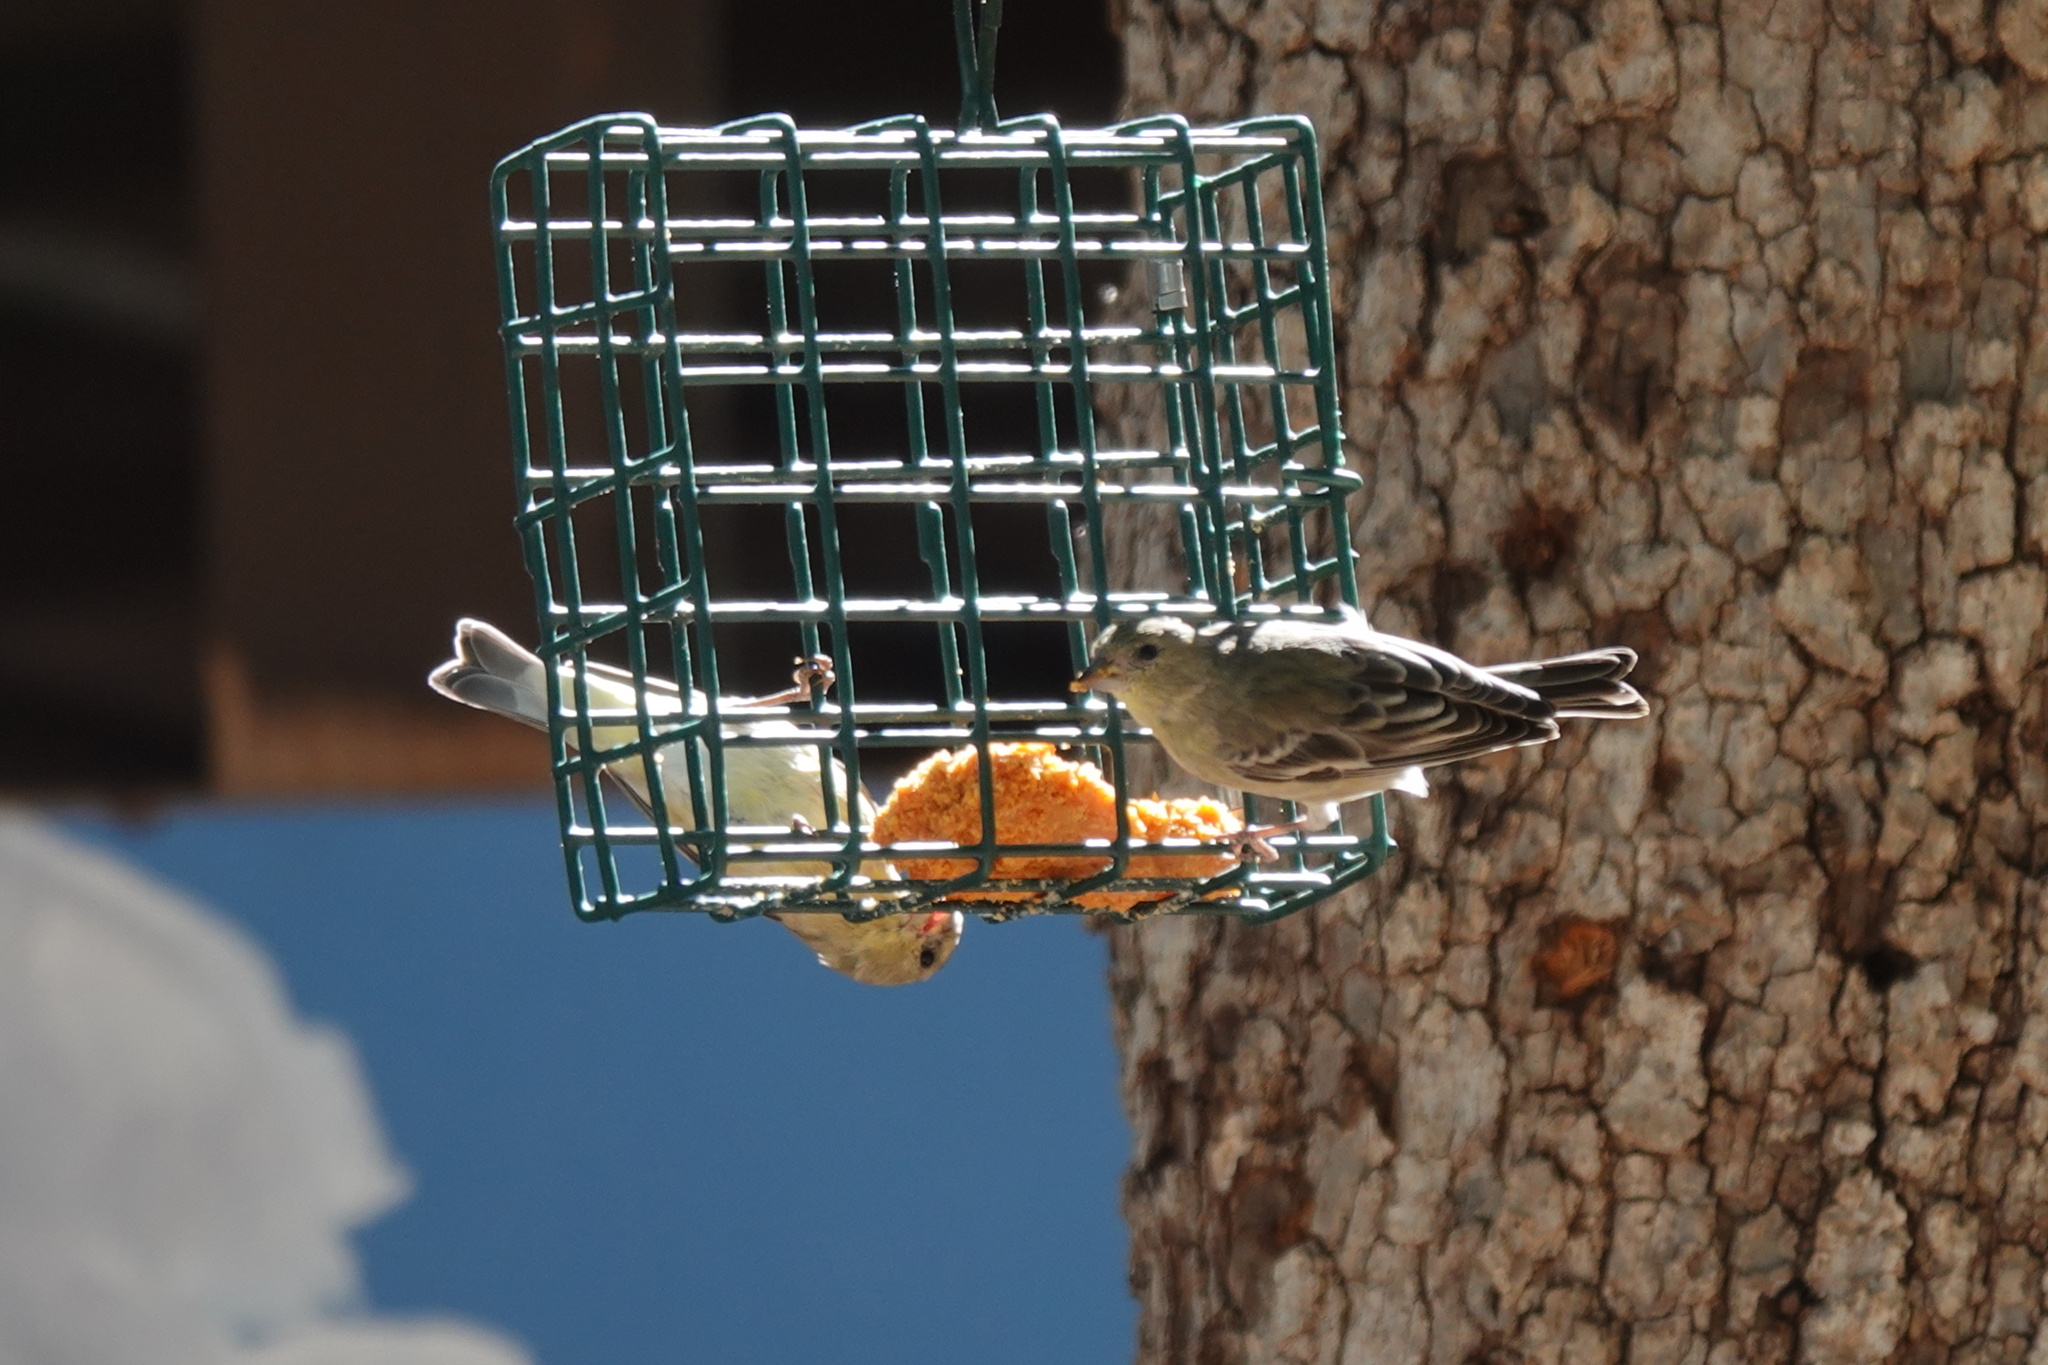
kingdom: Animalia
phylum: Chordata
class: Aves
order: Passeriformes
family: Fringillidae
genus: Spinus
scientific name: Spinus psaltria
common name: Lesser goldfinch
